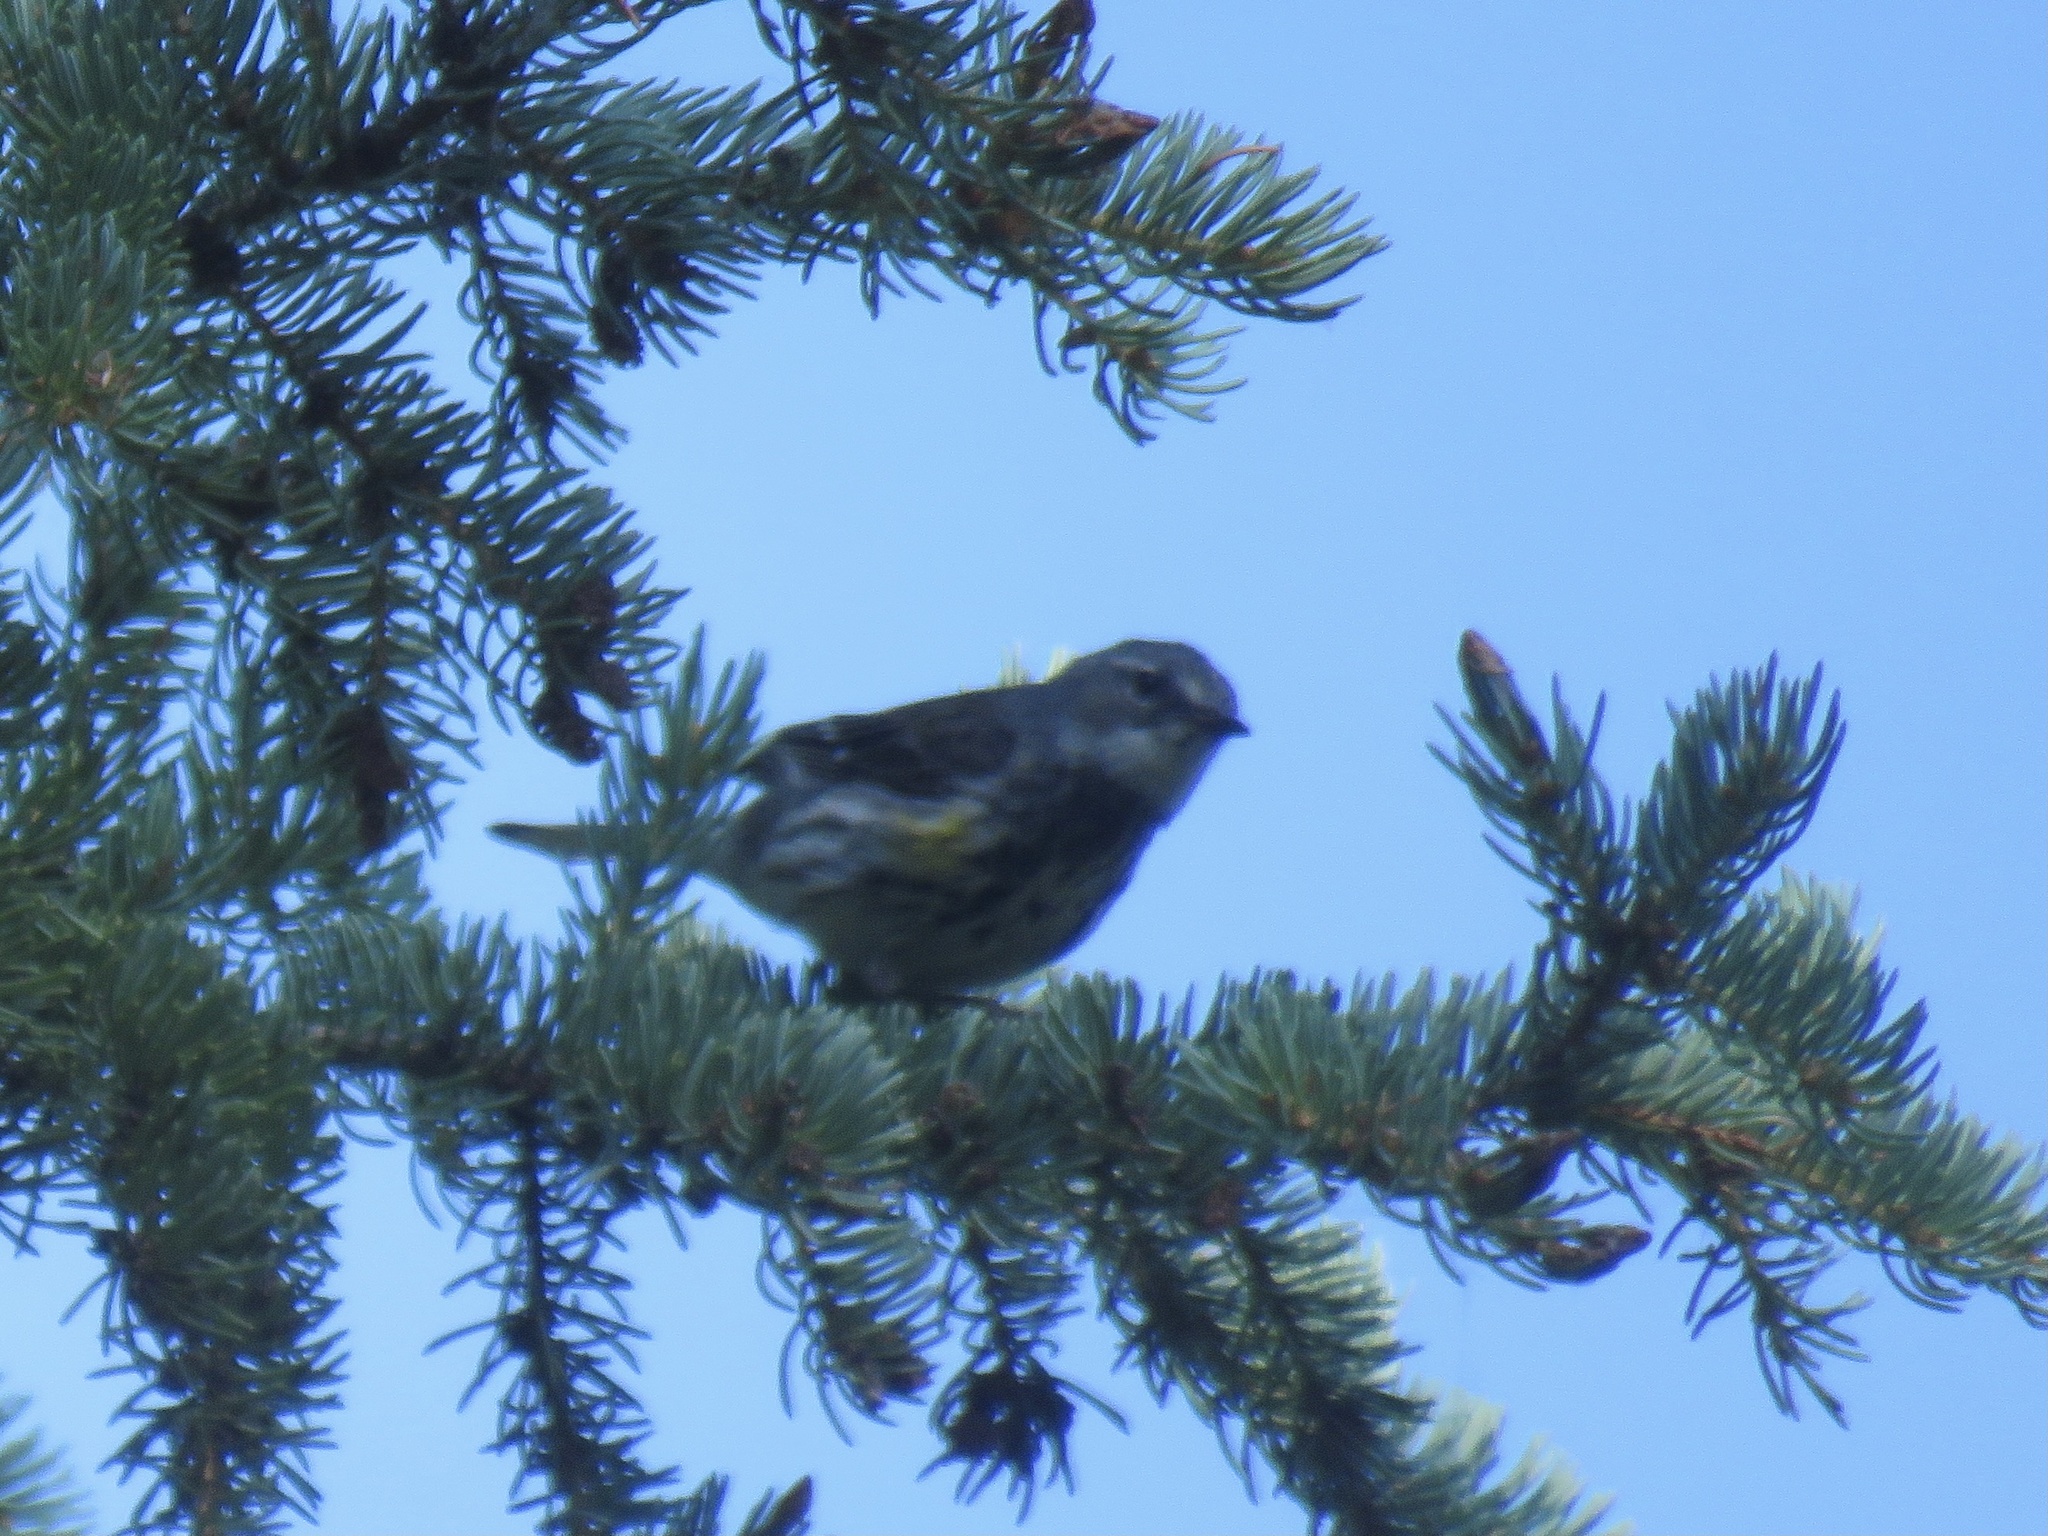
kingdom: Animalia
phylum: Chordata
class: Aves
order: Passeriformes
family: Parulidae
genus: Setophaga
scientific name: Setophaga coronata
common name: Myrtle warbler
